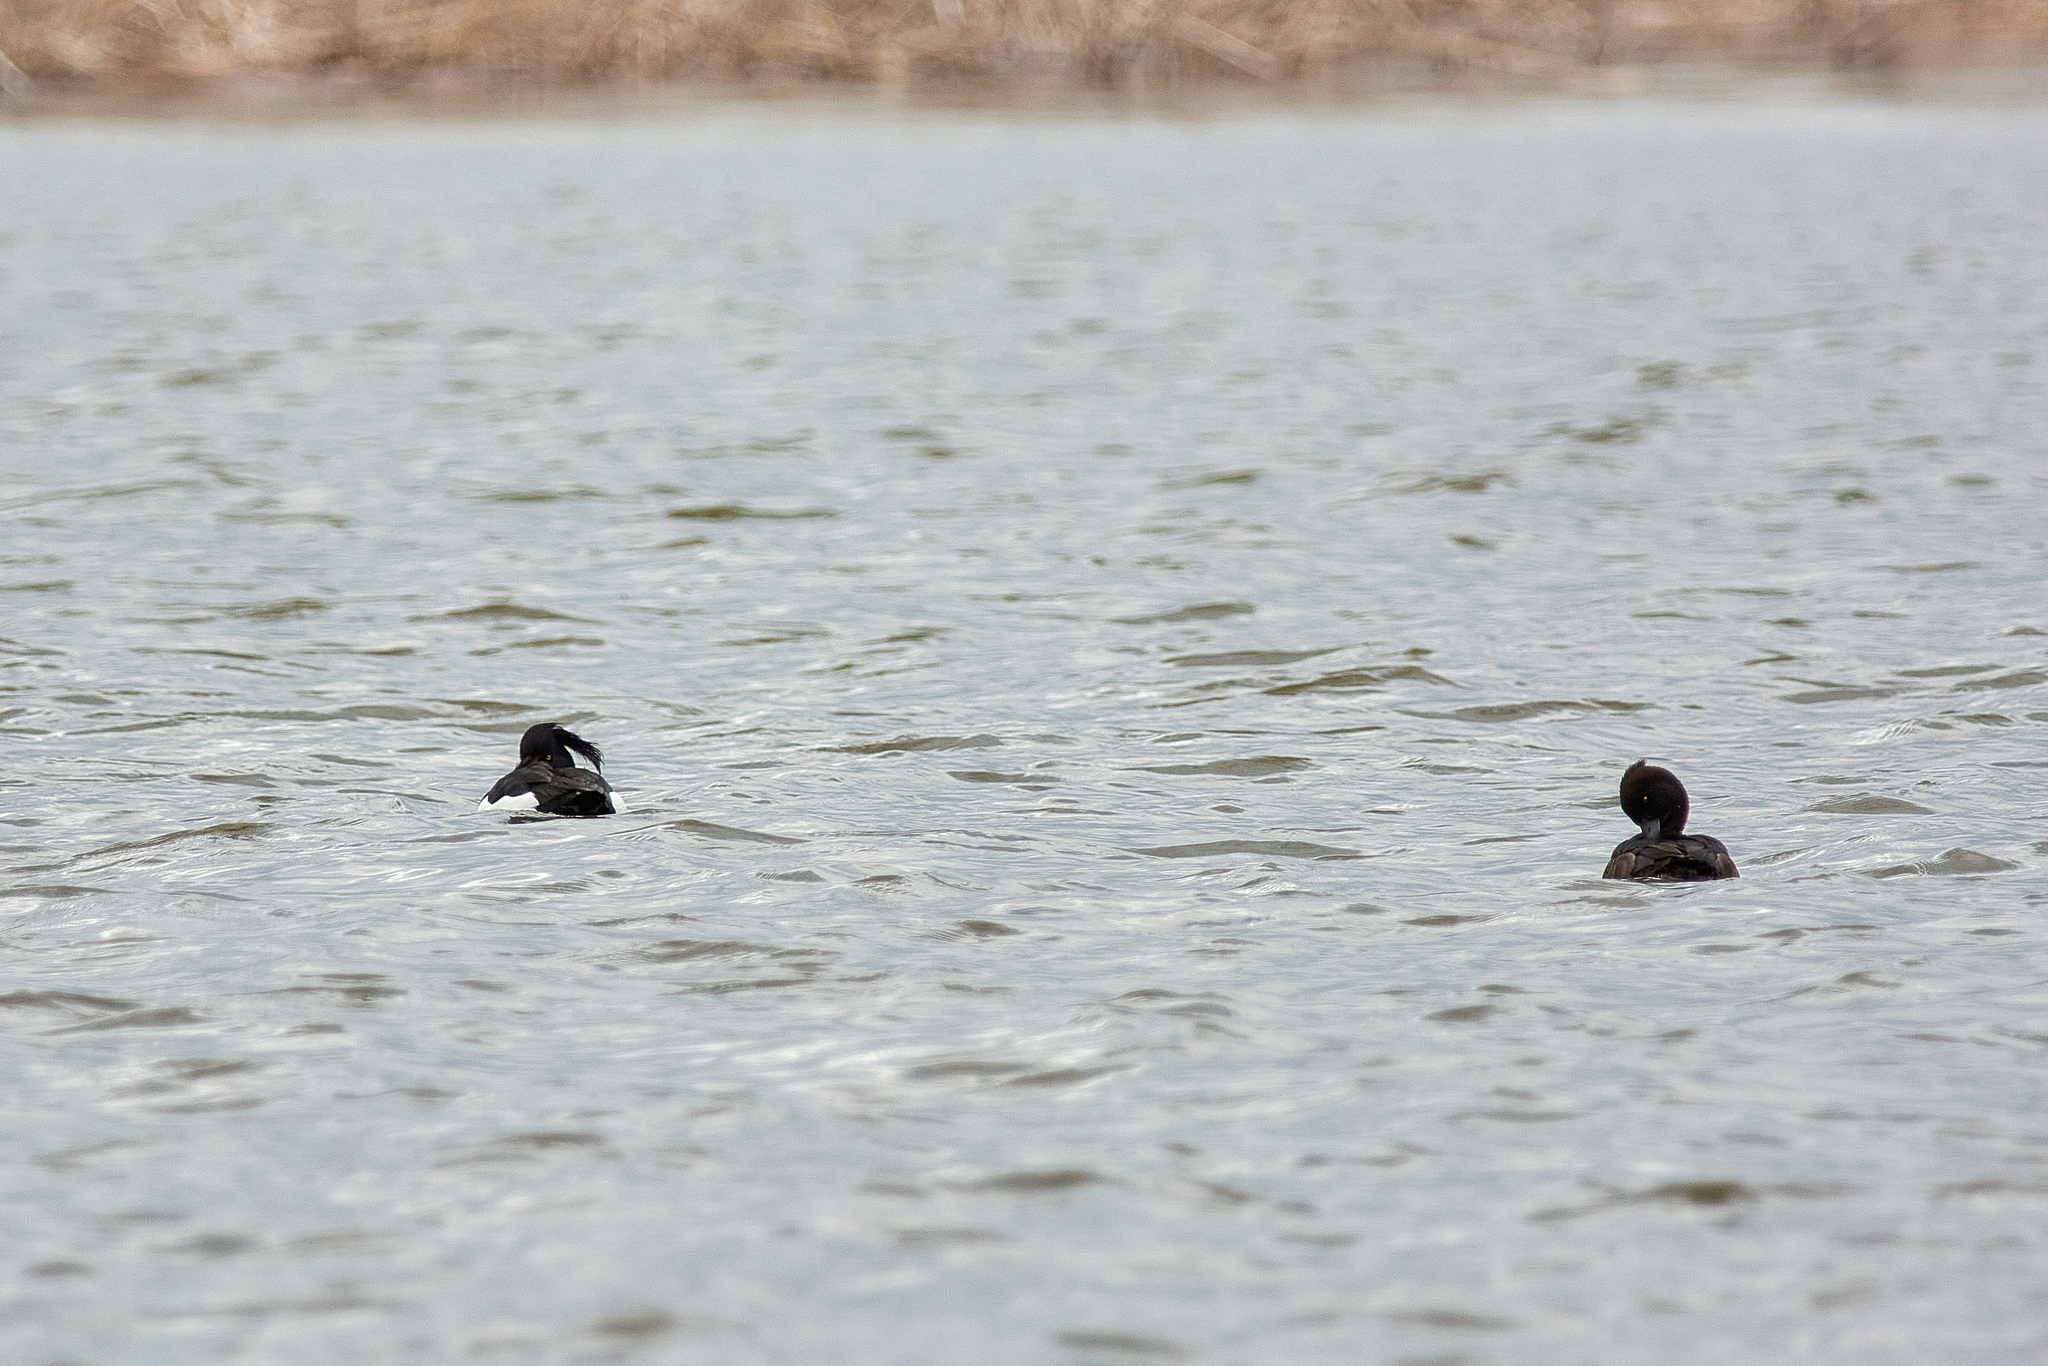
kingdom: Animalia
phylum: Chordata
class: Aves
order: Anseriformes
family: Anatidae
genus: Aythya
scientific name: Aythya fuligula
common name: Tufted duck
